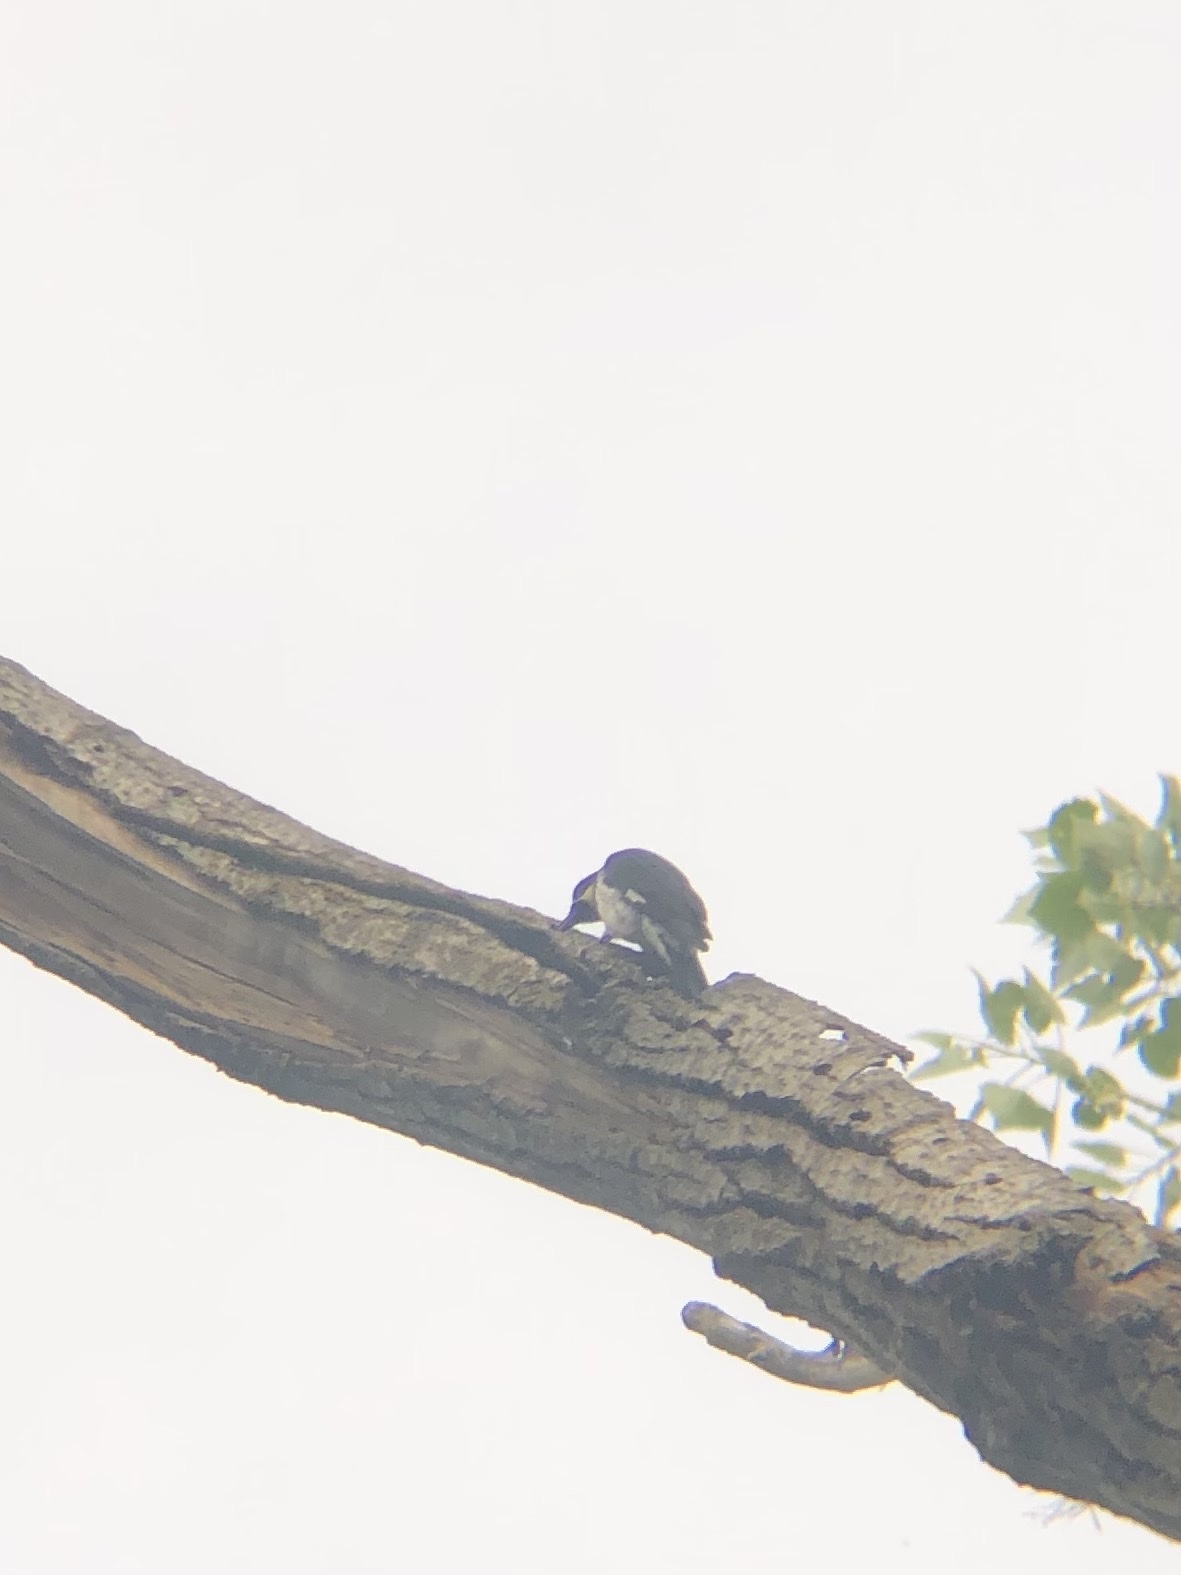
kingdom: Animalia
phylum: Chordata
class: Aves
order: Piciformes
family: Picidae
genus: Melanerpes
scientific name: Melanerpes formicivorus
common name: Acorn woodpecker
